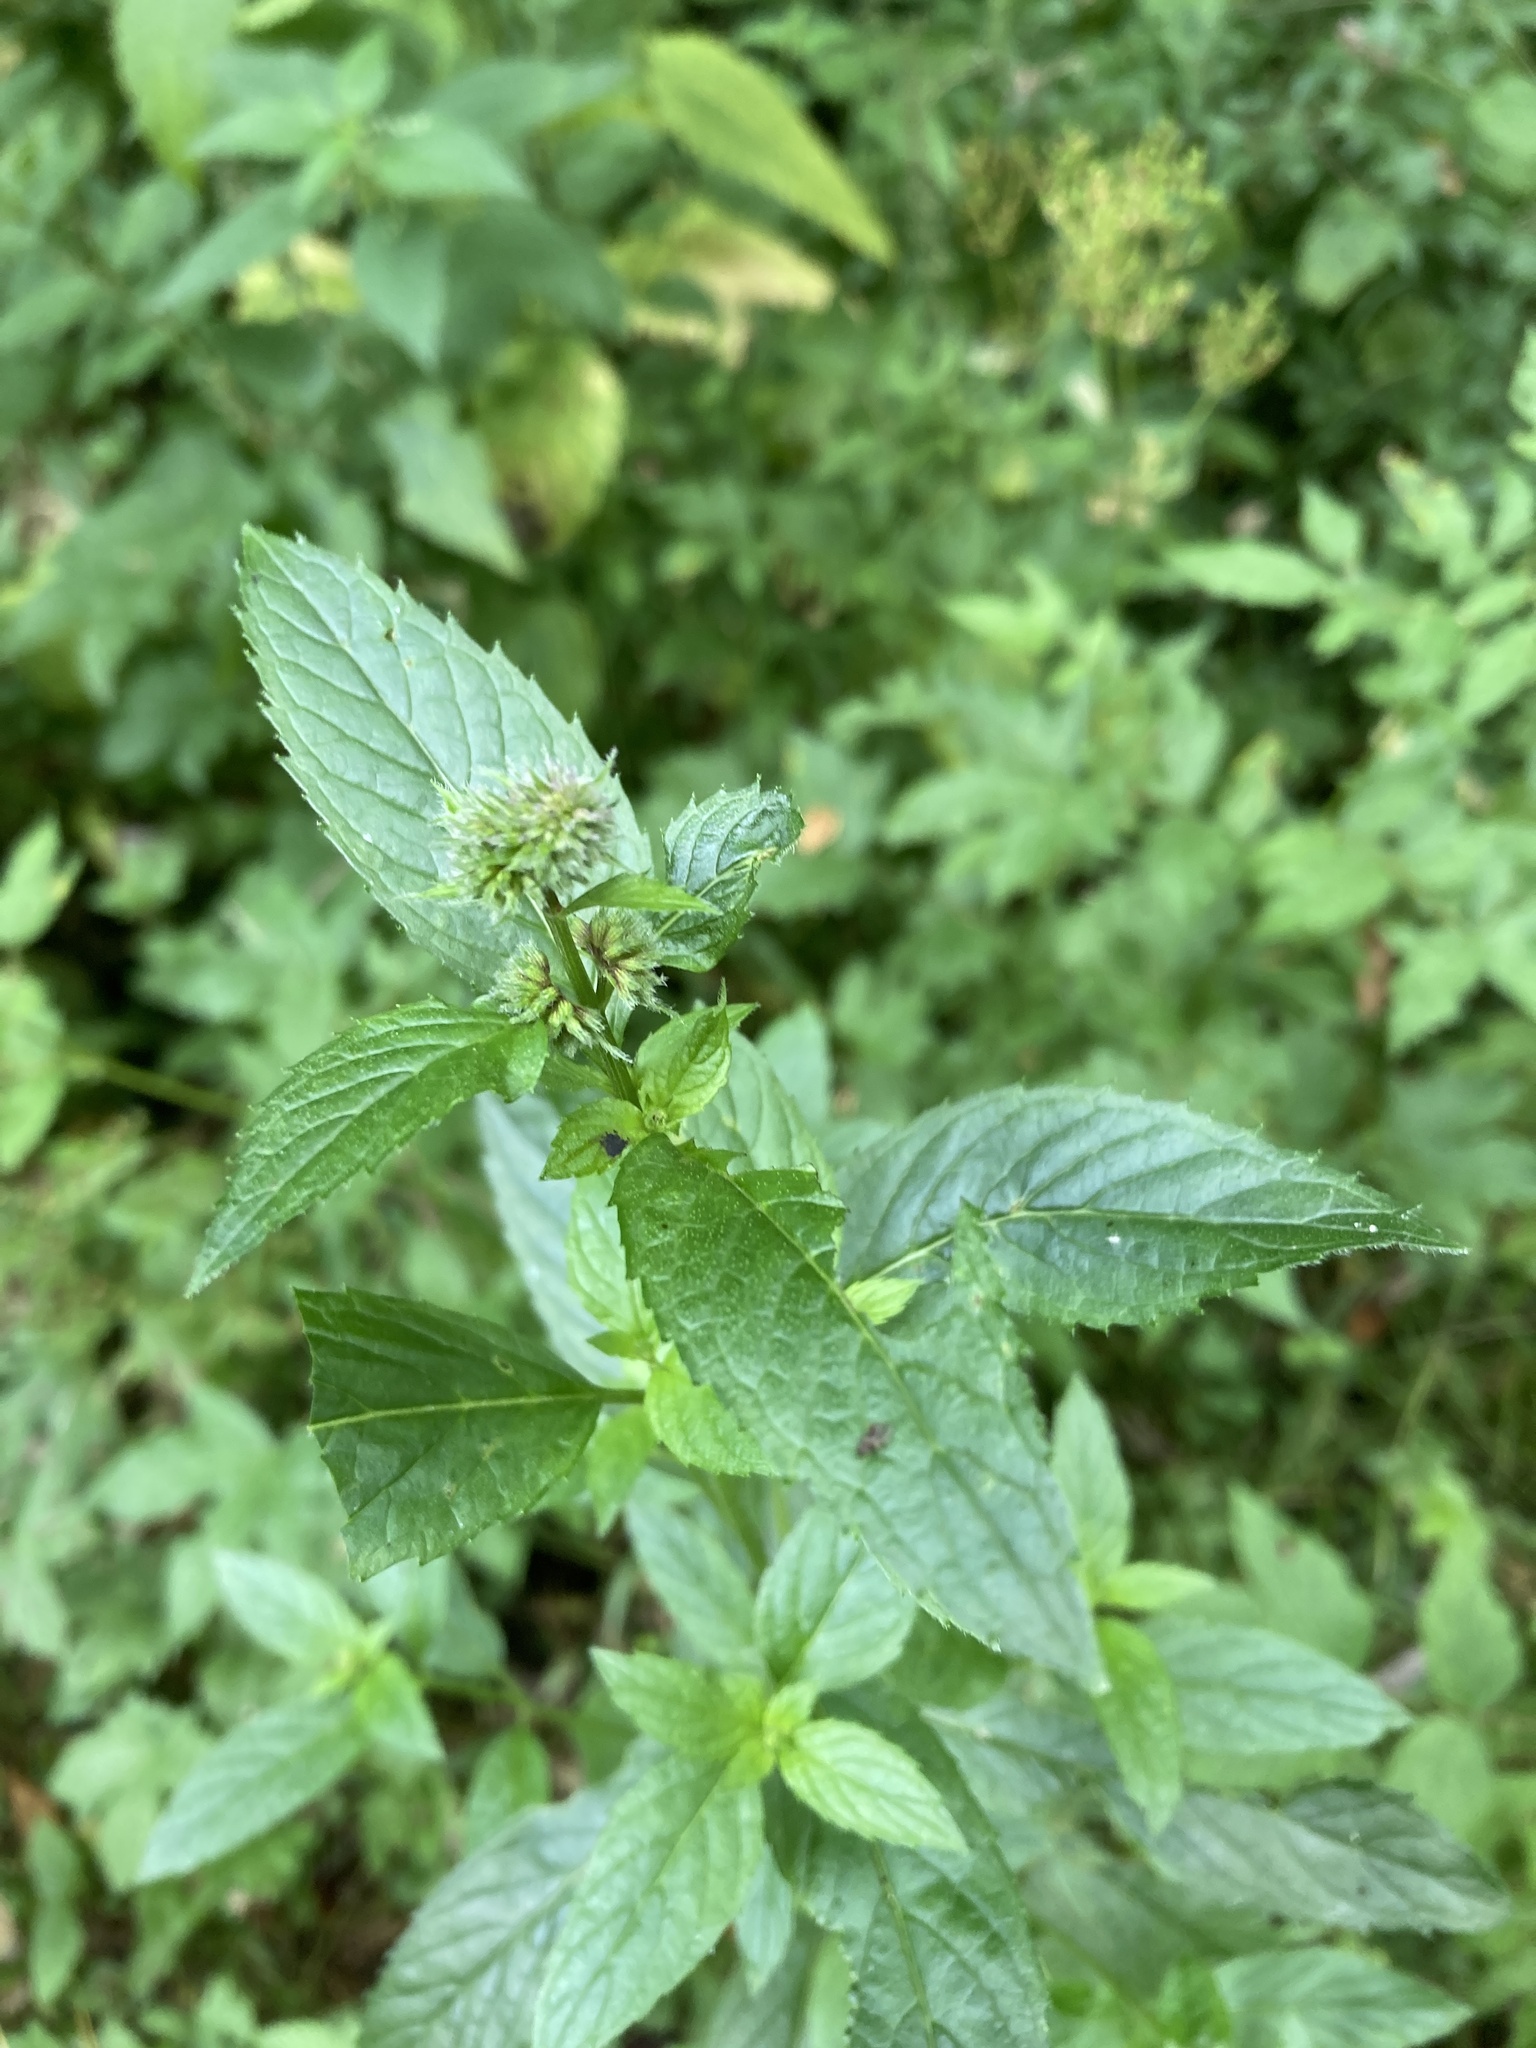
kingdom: Plantae
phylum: Tracheophyta
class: Magnoliopsida
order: Lamiales
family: Lamiaceae
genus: Mentha
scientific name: Mentha spicata
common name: Spearmint
